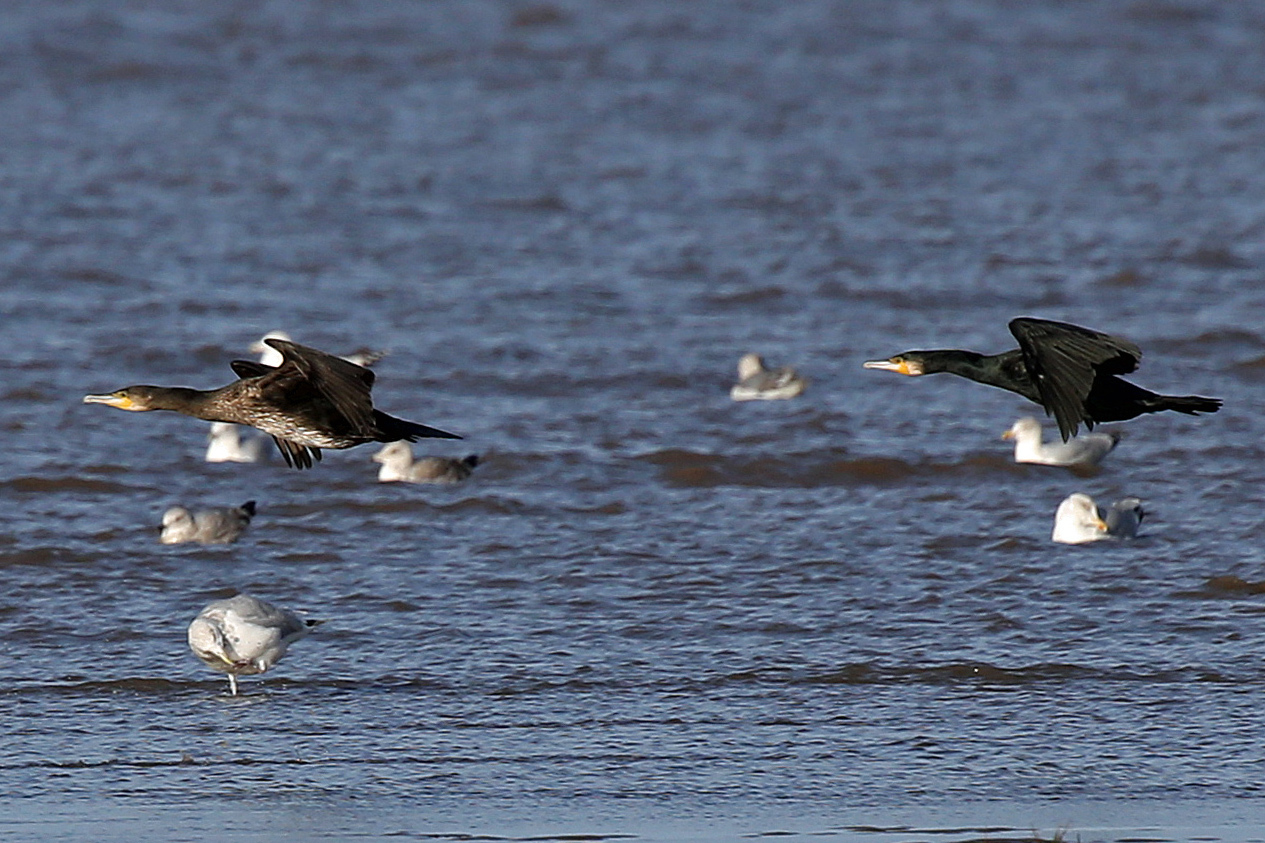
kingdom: Animalia
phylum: Chordata
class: Aves
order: Suliformes
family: Phalacrocoracidae
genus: Phalacrocorax
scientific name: Phalacrocorax carbo
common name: Great cormorant
